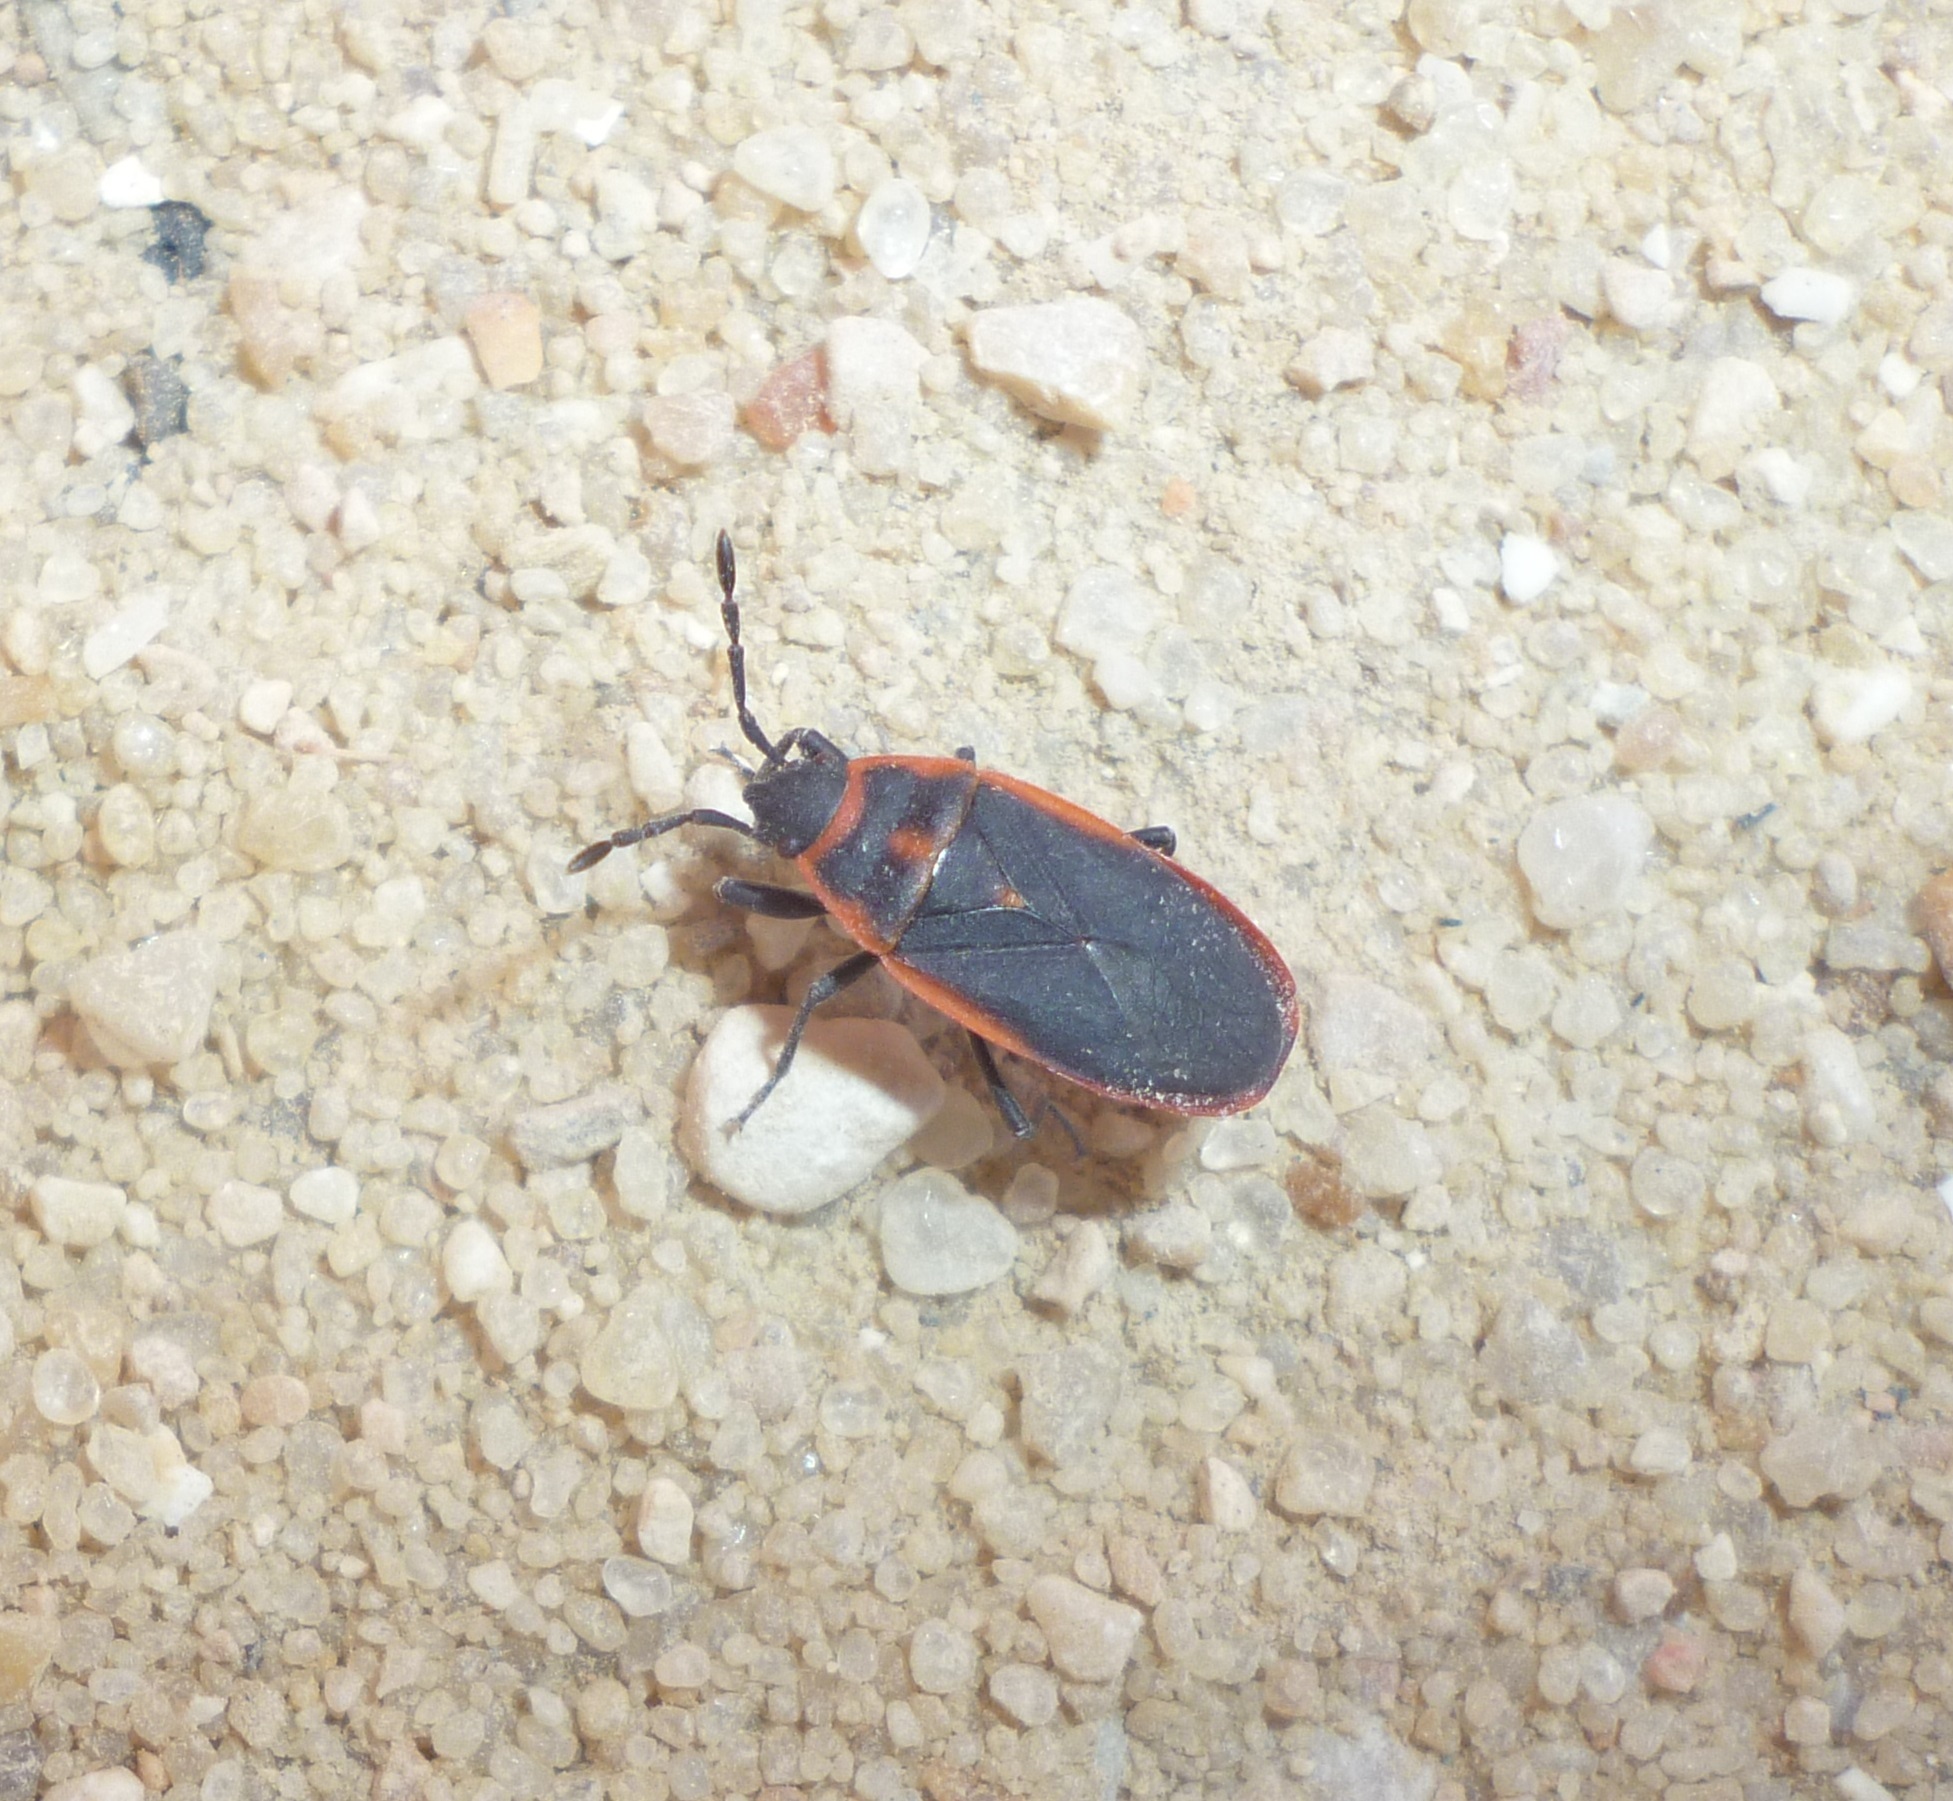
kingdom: Animalia
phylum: Arthropoda
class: Insecta
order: Hemiptera
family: Pyrrhocoridae
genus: Scantius
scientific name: Scantius forsteri
